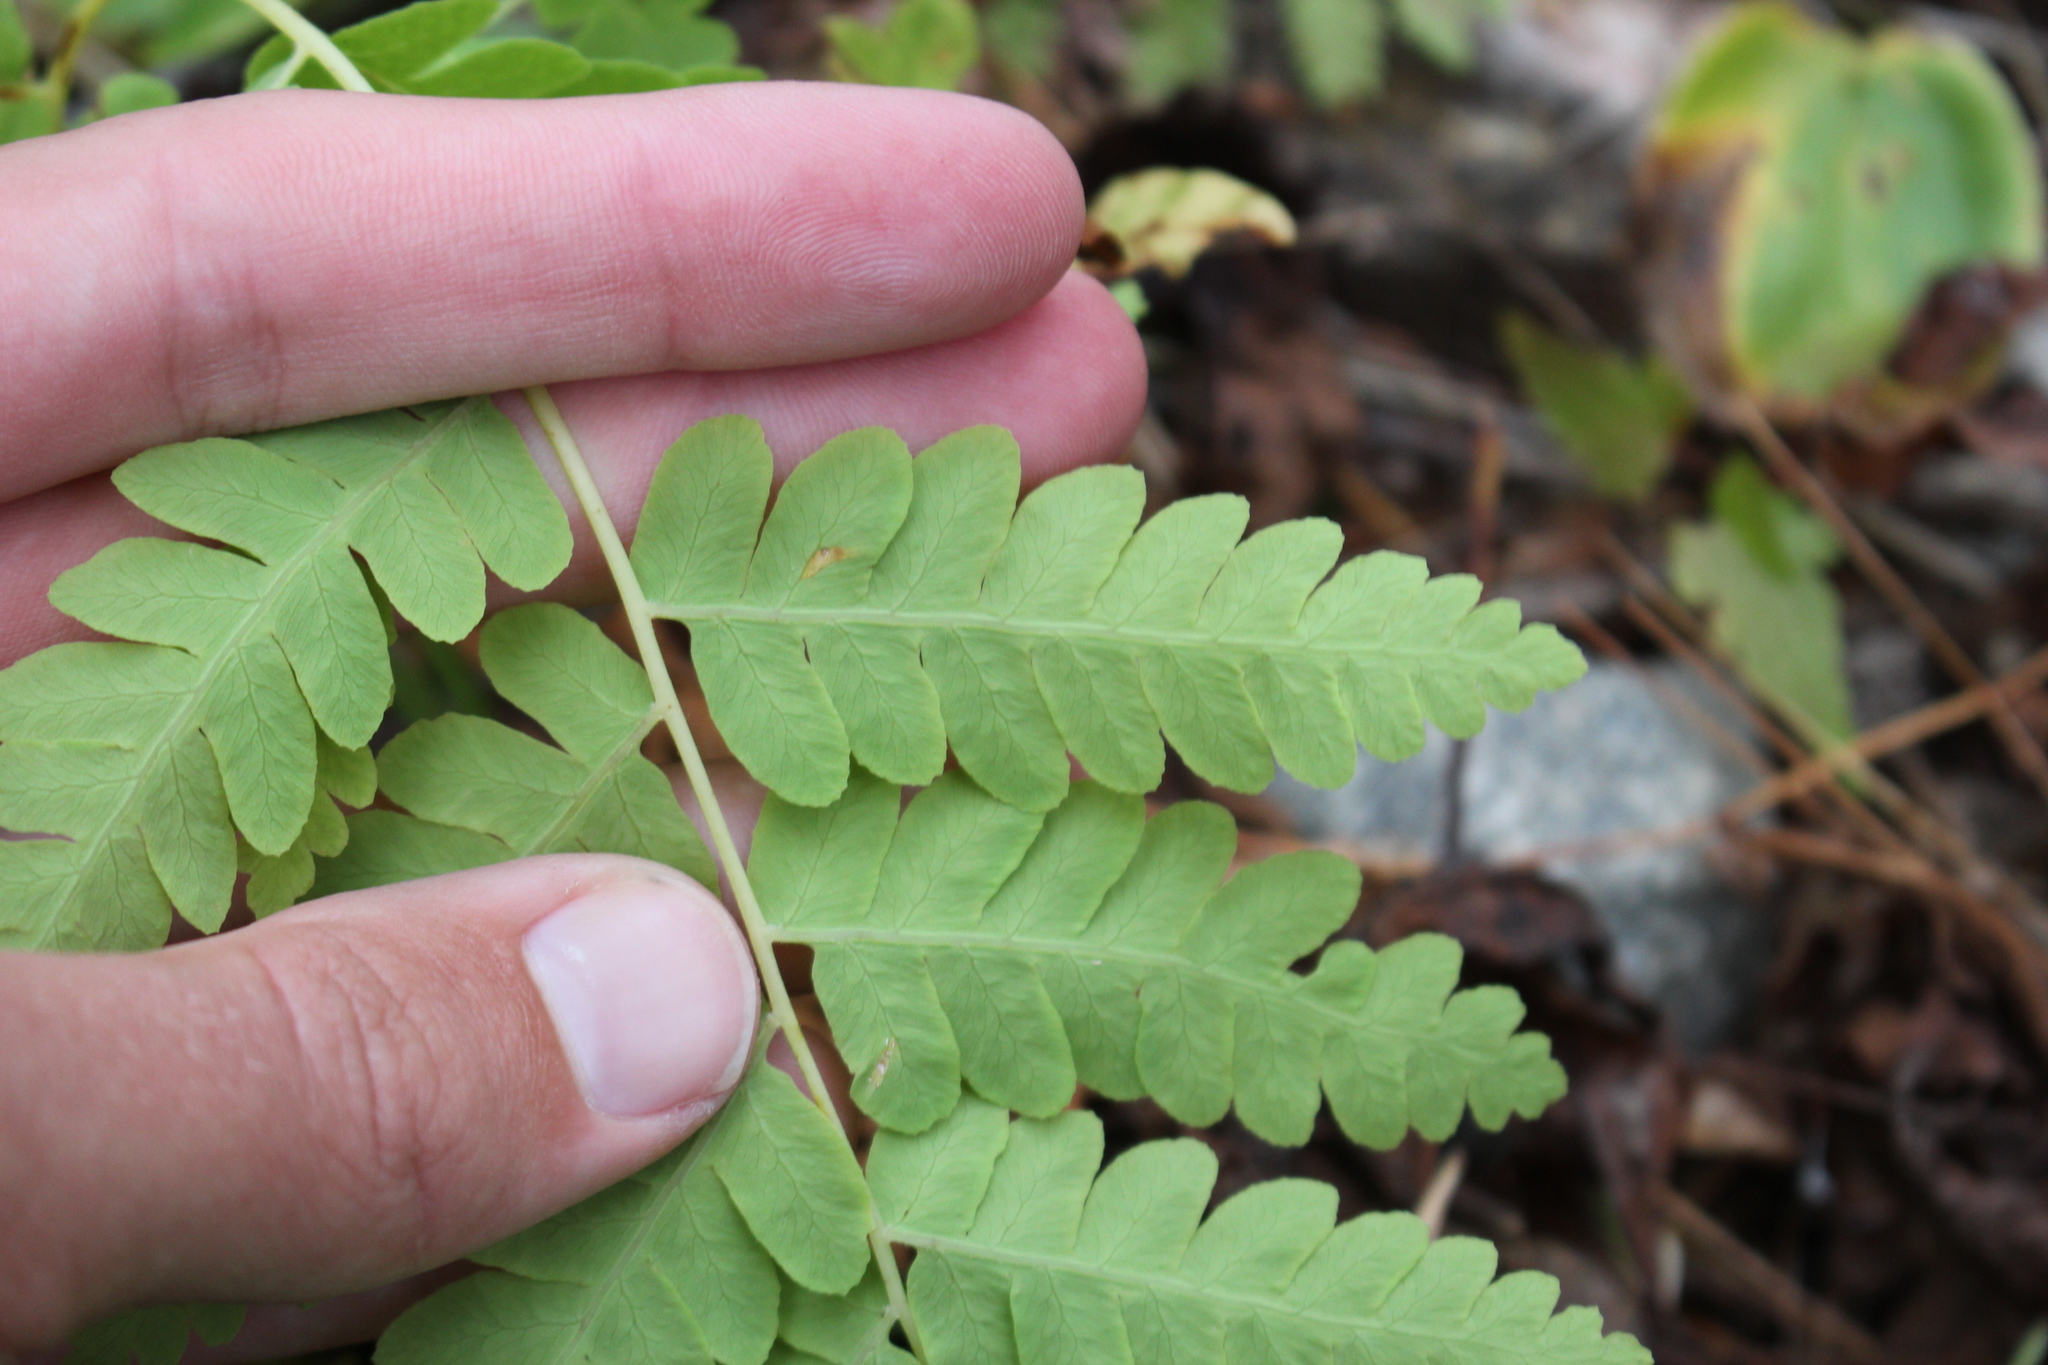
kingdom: Plantae
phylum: Tracheophyta
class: Polypodiopsida
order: Osmundales
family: Osmundaceae
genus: Claytosmunda
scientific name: Claytosmunda claytoniana
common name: Clayton's fern
